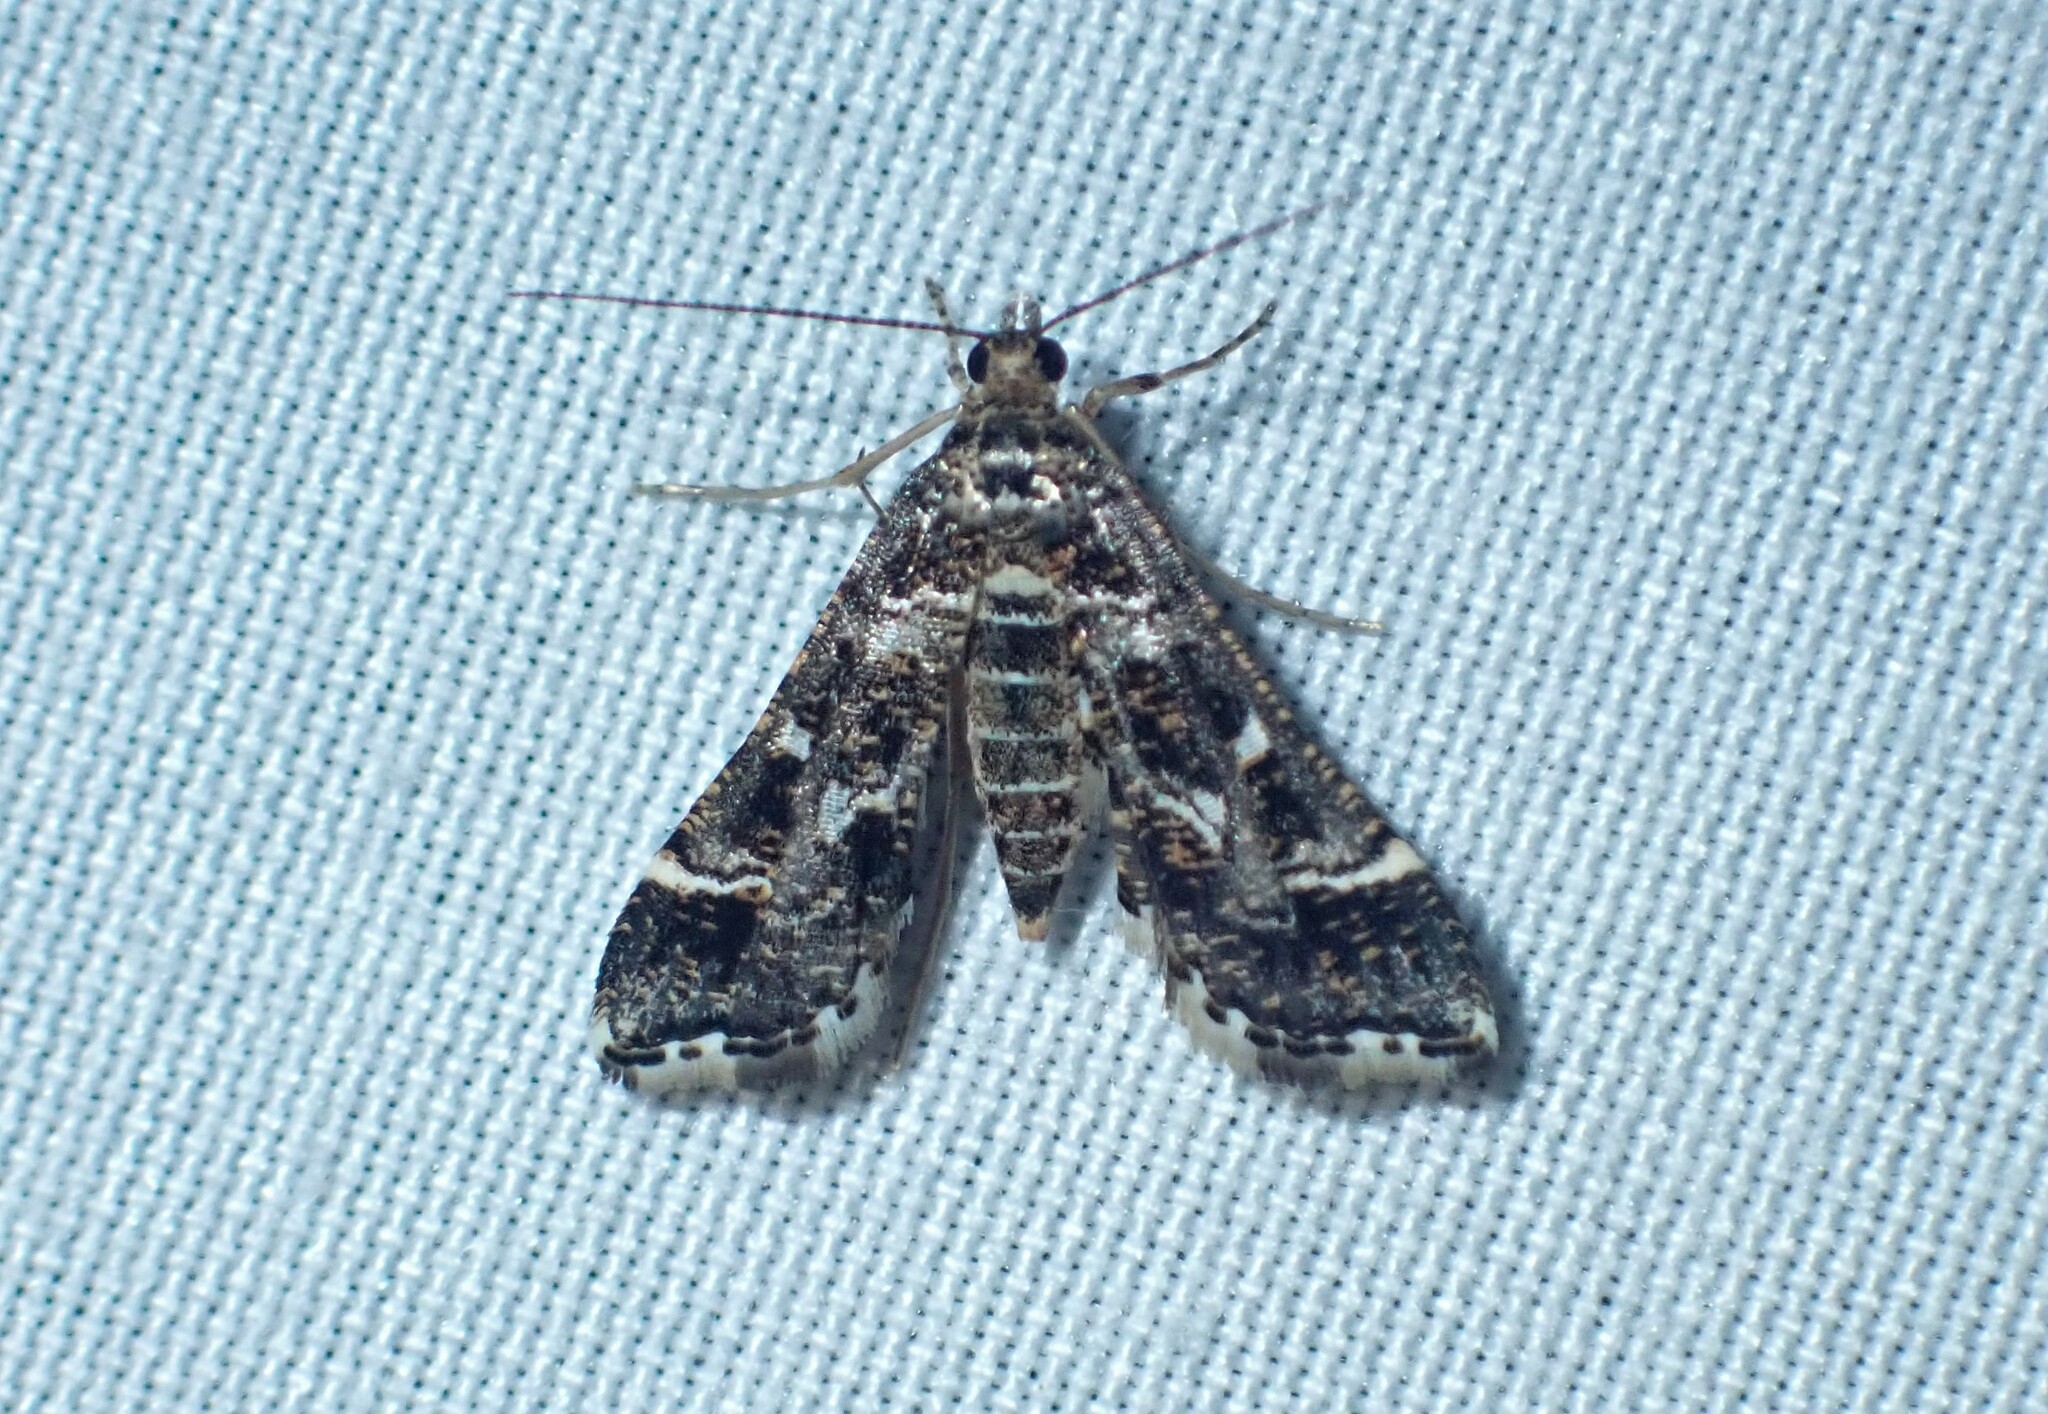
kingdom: Animalia
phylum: Arthropoda
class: Insecta
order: Lepidoptera
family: Crambidae
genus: Diasemiopsis
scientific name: Diasemiopsis ramburialis
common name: Vagrant china-mark
